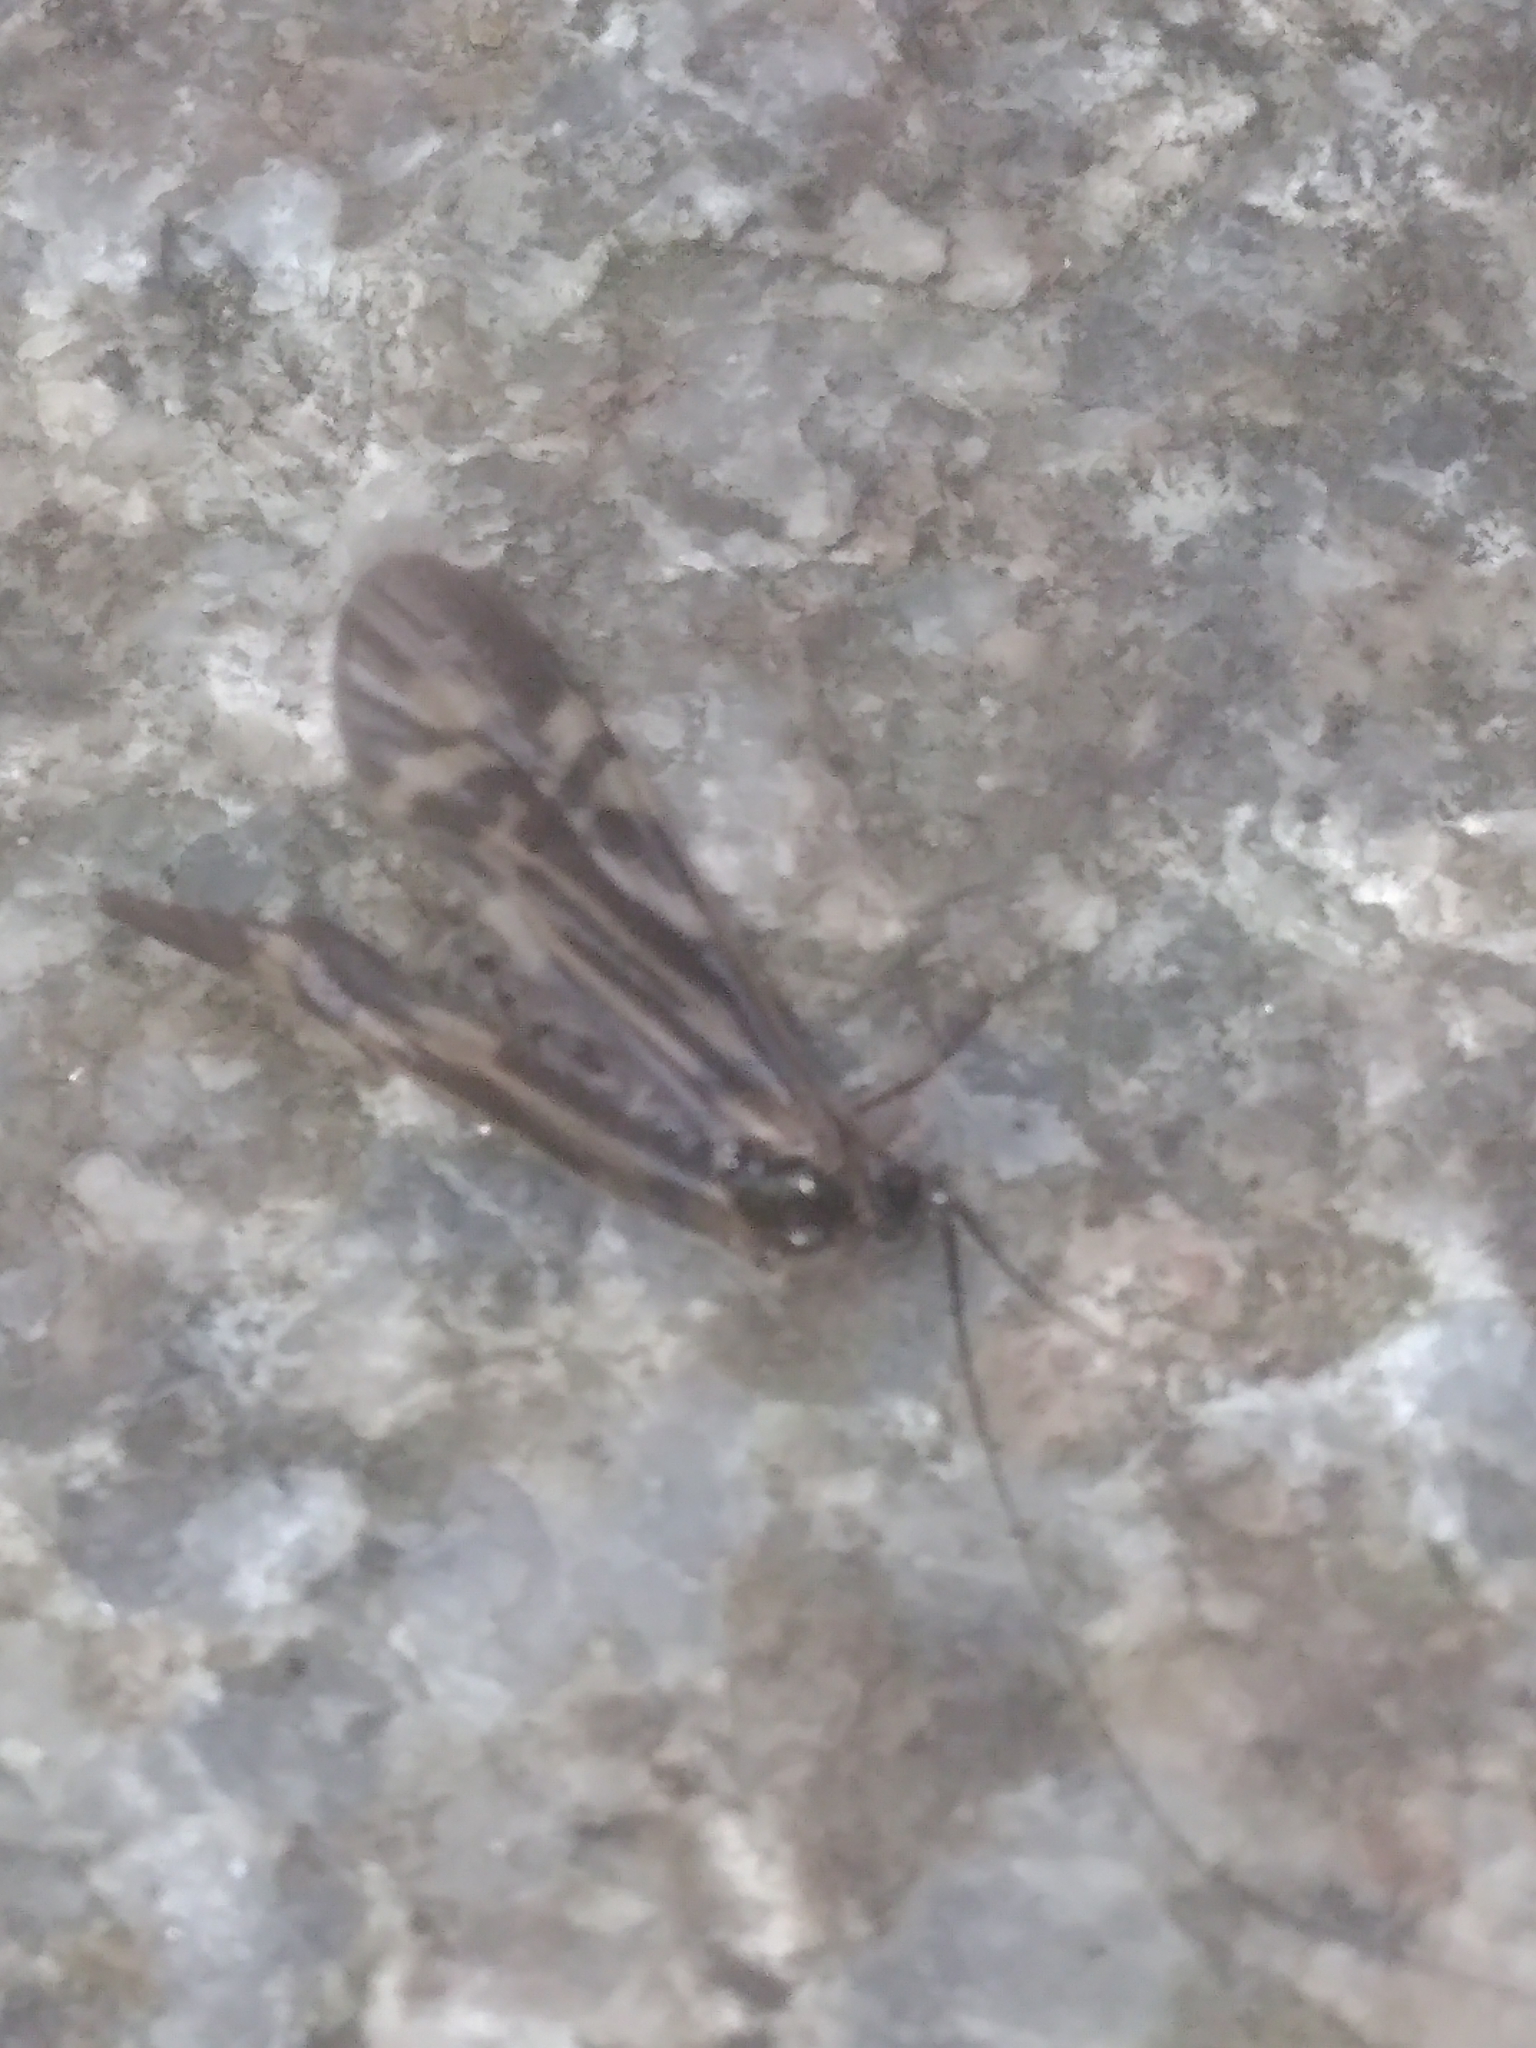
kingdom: Animalia
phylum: Arthropoda
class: Insecta
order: Trichoptera
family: Hydropsychidae
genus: Macrostemum
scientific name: Macrostemum zebratum
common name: Zebra caddisfly
